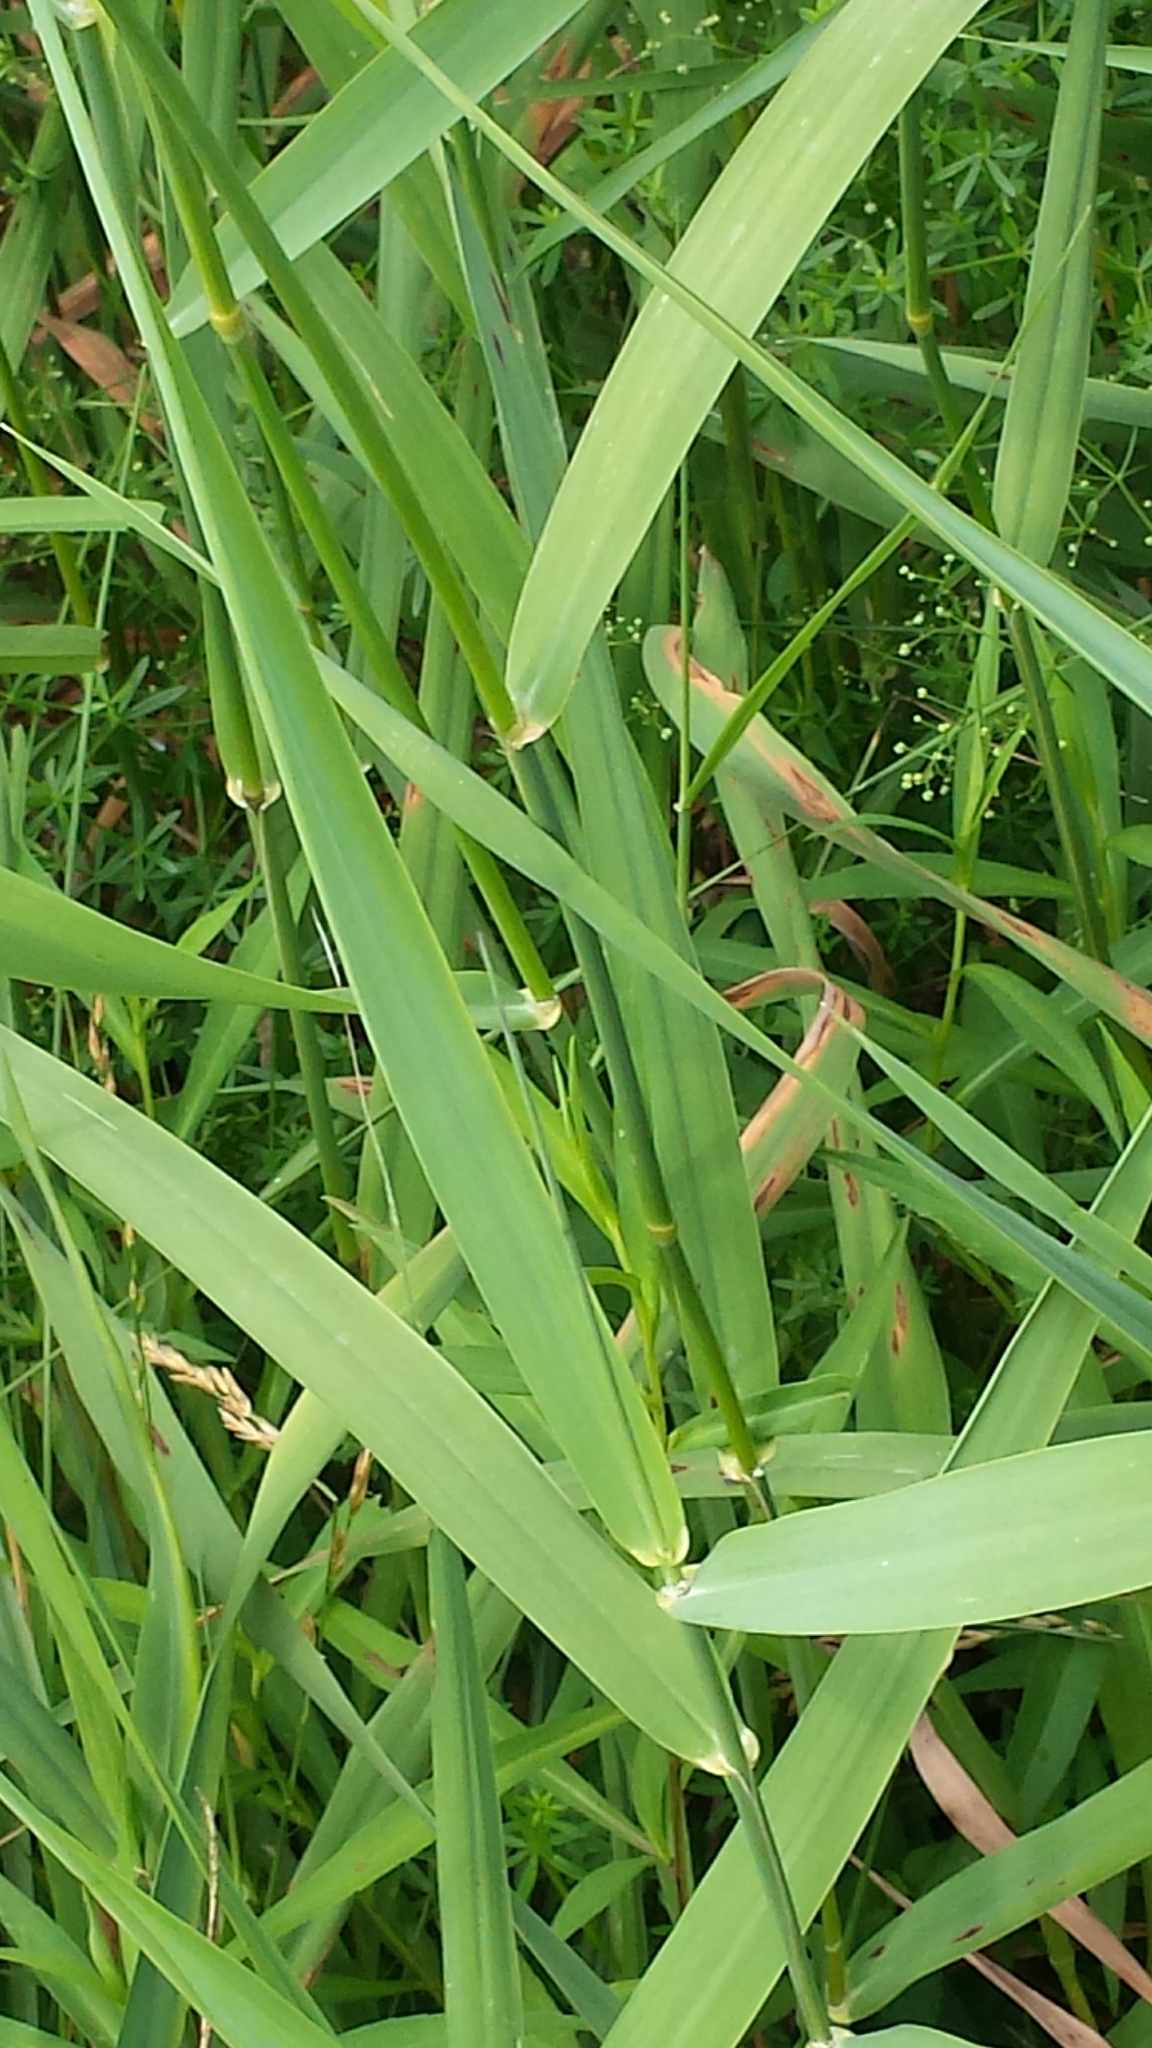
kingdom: Plantae
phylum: Tracheophyta
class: Liliopsida
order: Poales
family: Poaceae
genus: Phalaris
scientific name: Phalaris arundinacea
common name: Reed canary-grass
